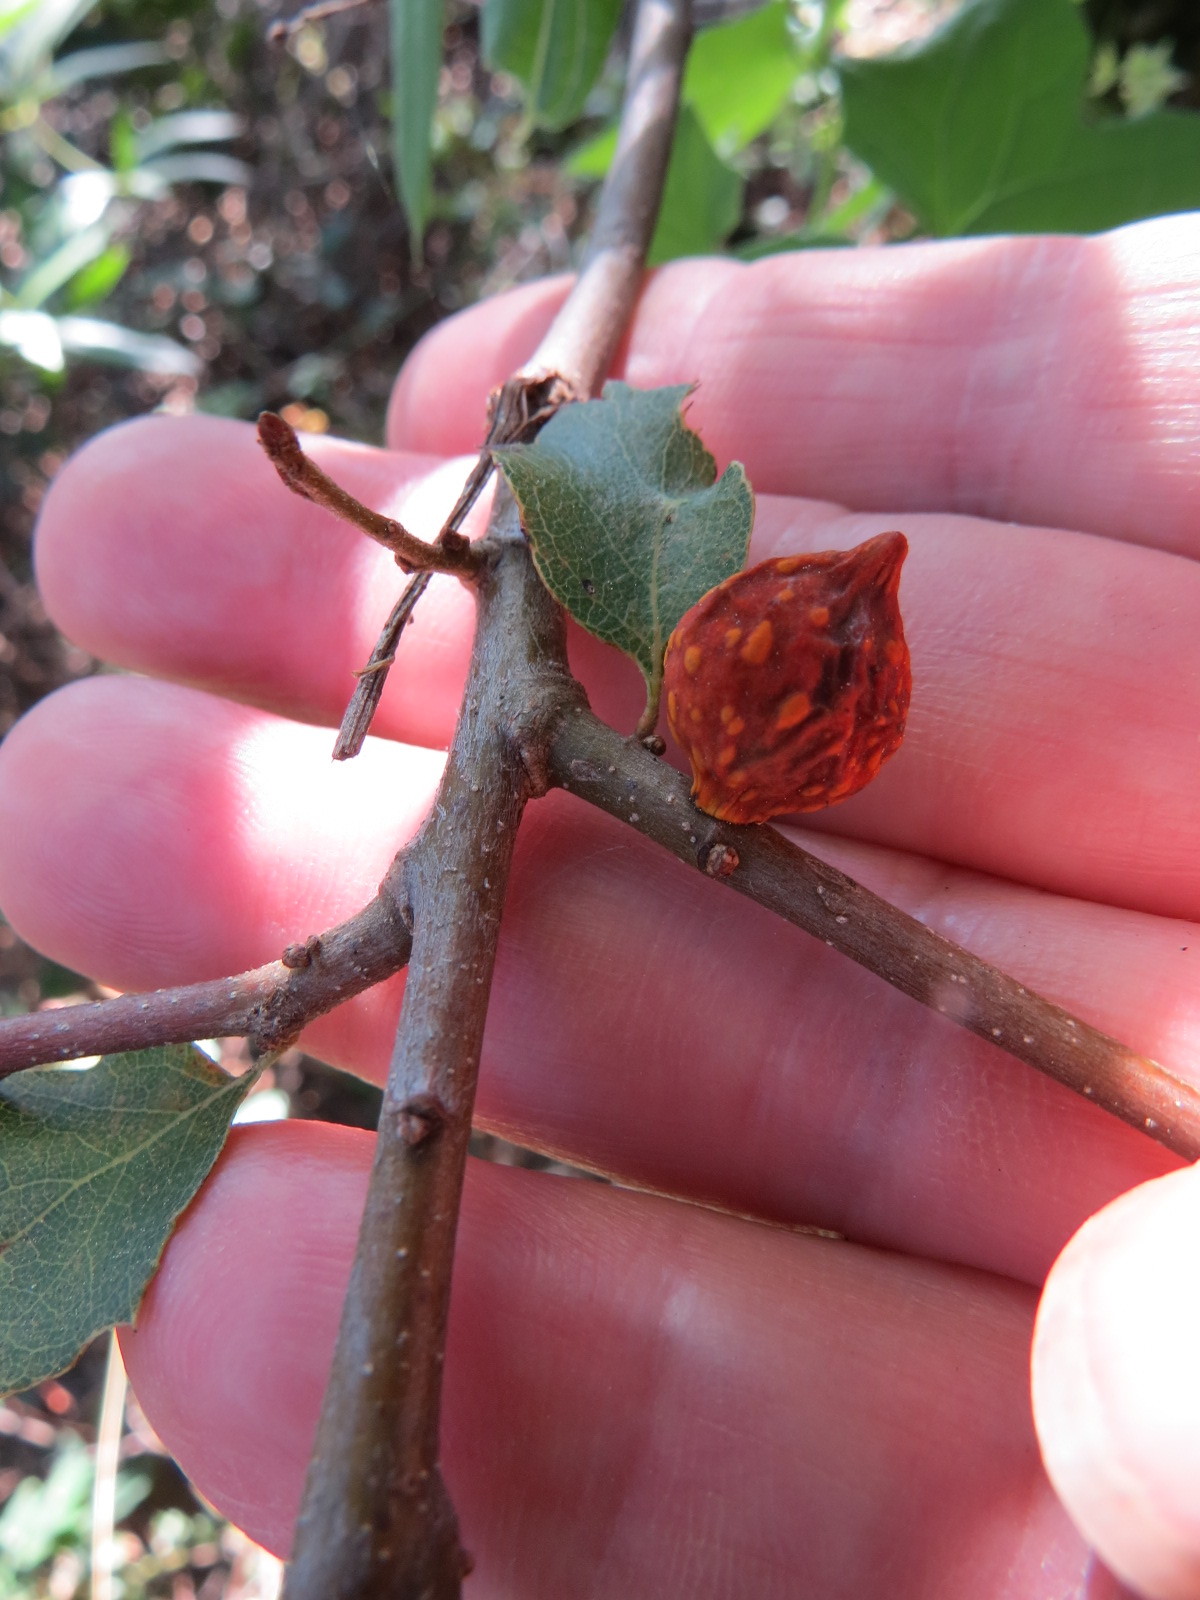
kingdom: Animalia
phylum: Arthropoda
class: Insecta
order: Hymenoptera
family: Cynipidae
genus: Burnettweldia
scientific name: Burnettweldia
